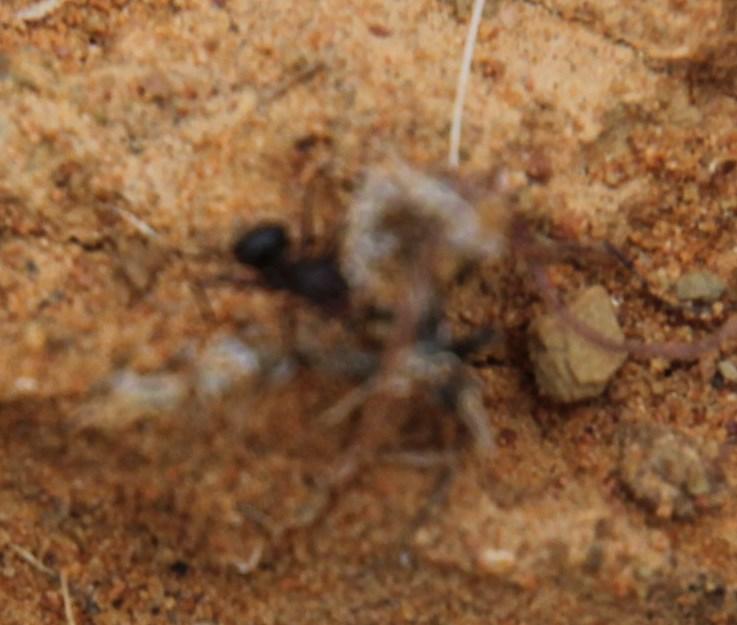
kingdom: Animalia
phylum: Arthropoda
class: Insecta
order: Hymenoptera
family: Formicidae
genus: Anoplolepis
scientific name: Anoplolepis steingroeveri
